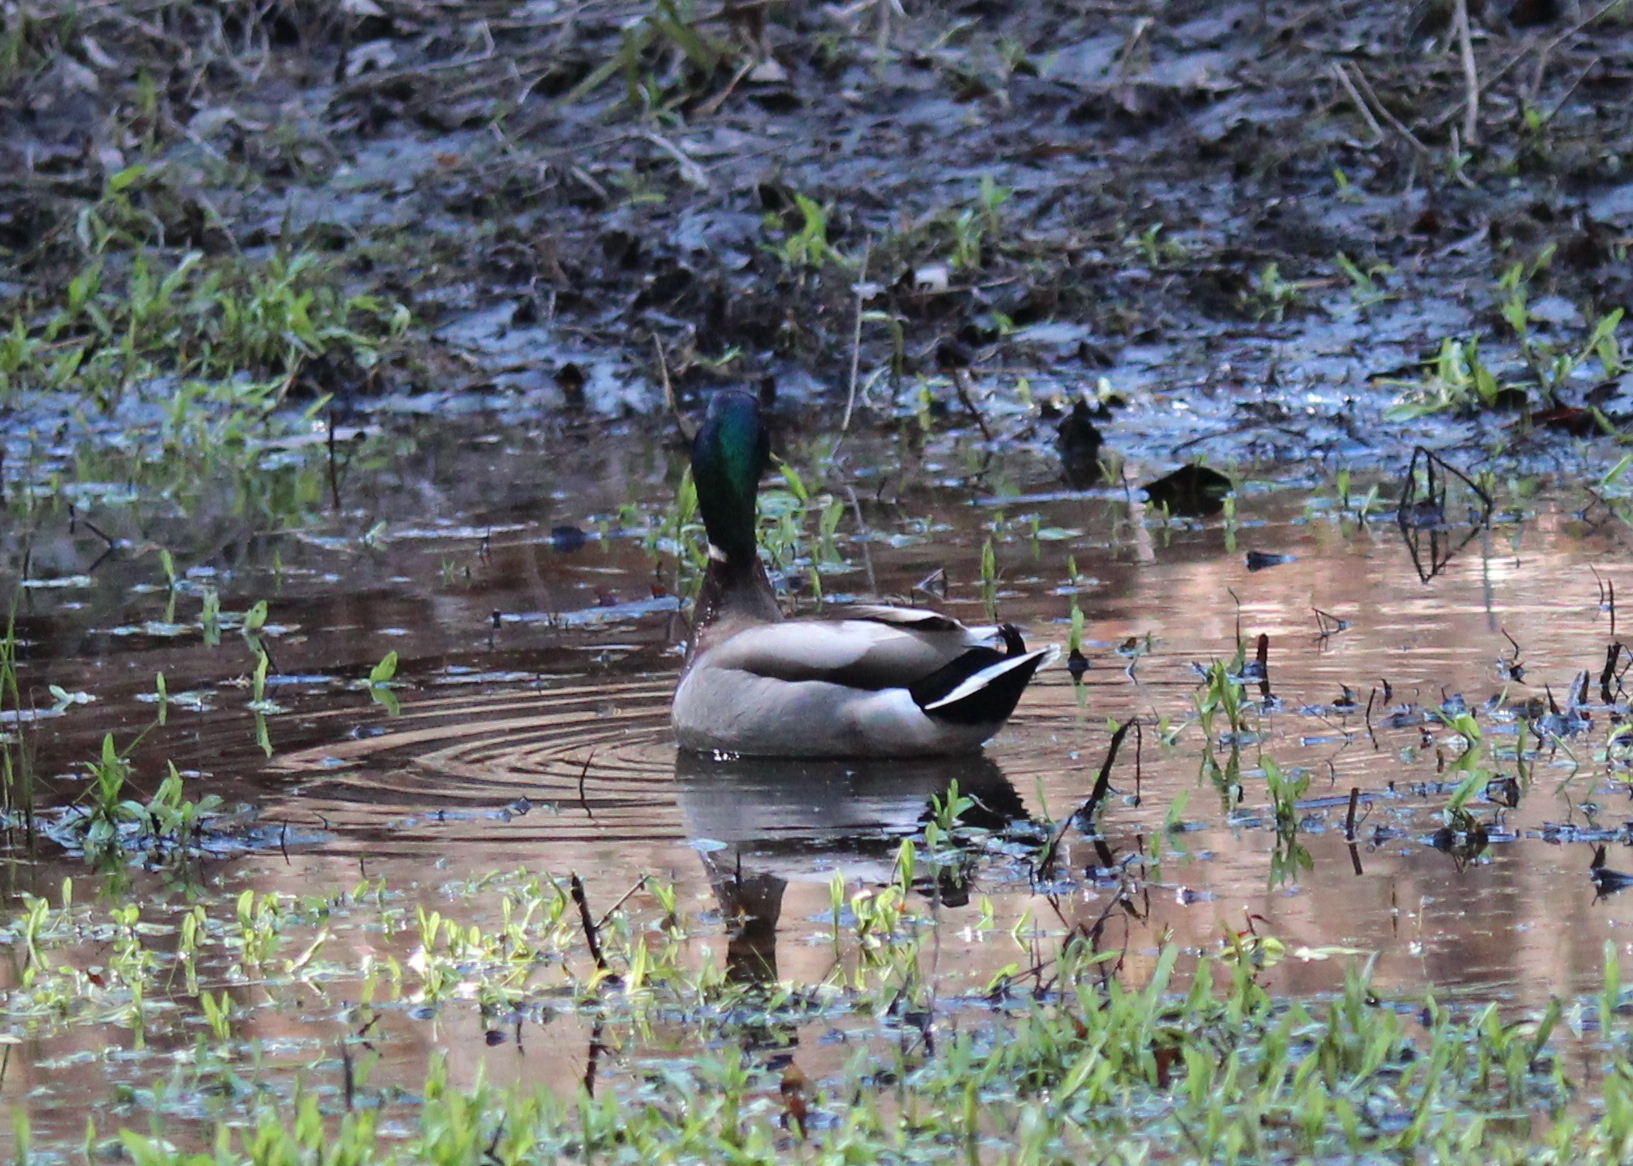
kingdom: Animalia
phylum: Chordata
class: Aves
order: Anseriformes
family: Anatidae
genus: Anas
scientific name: Anas platyrhynchos
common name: Mallard
